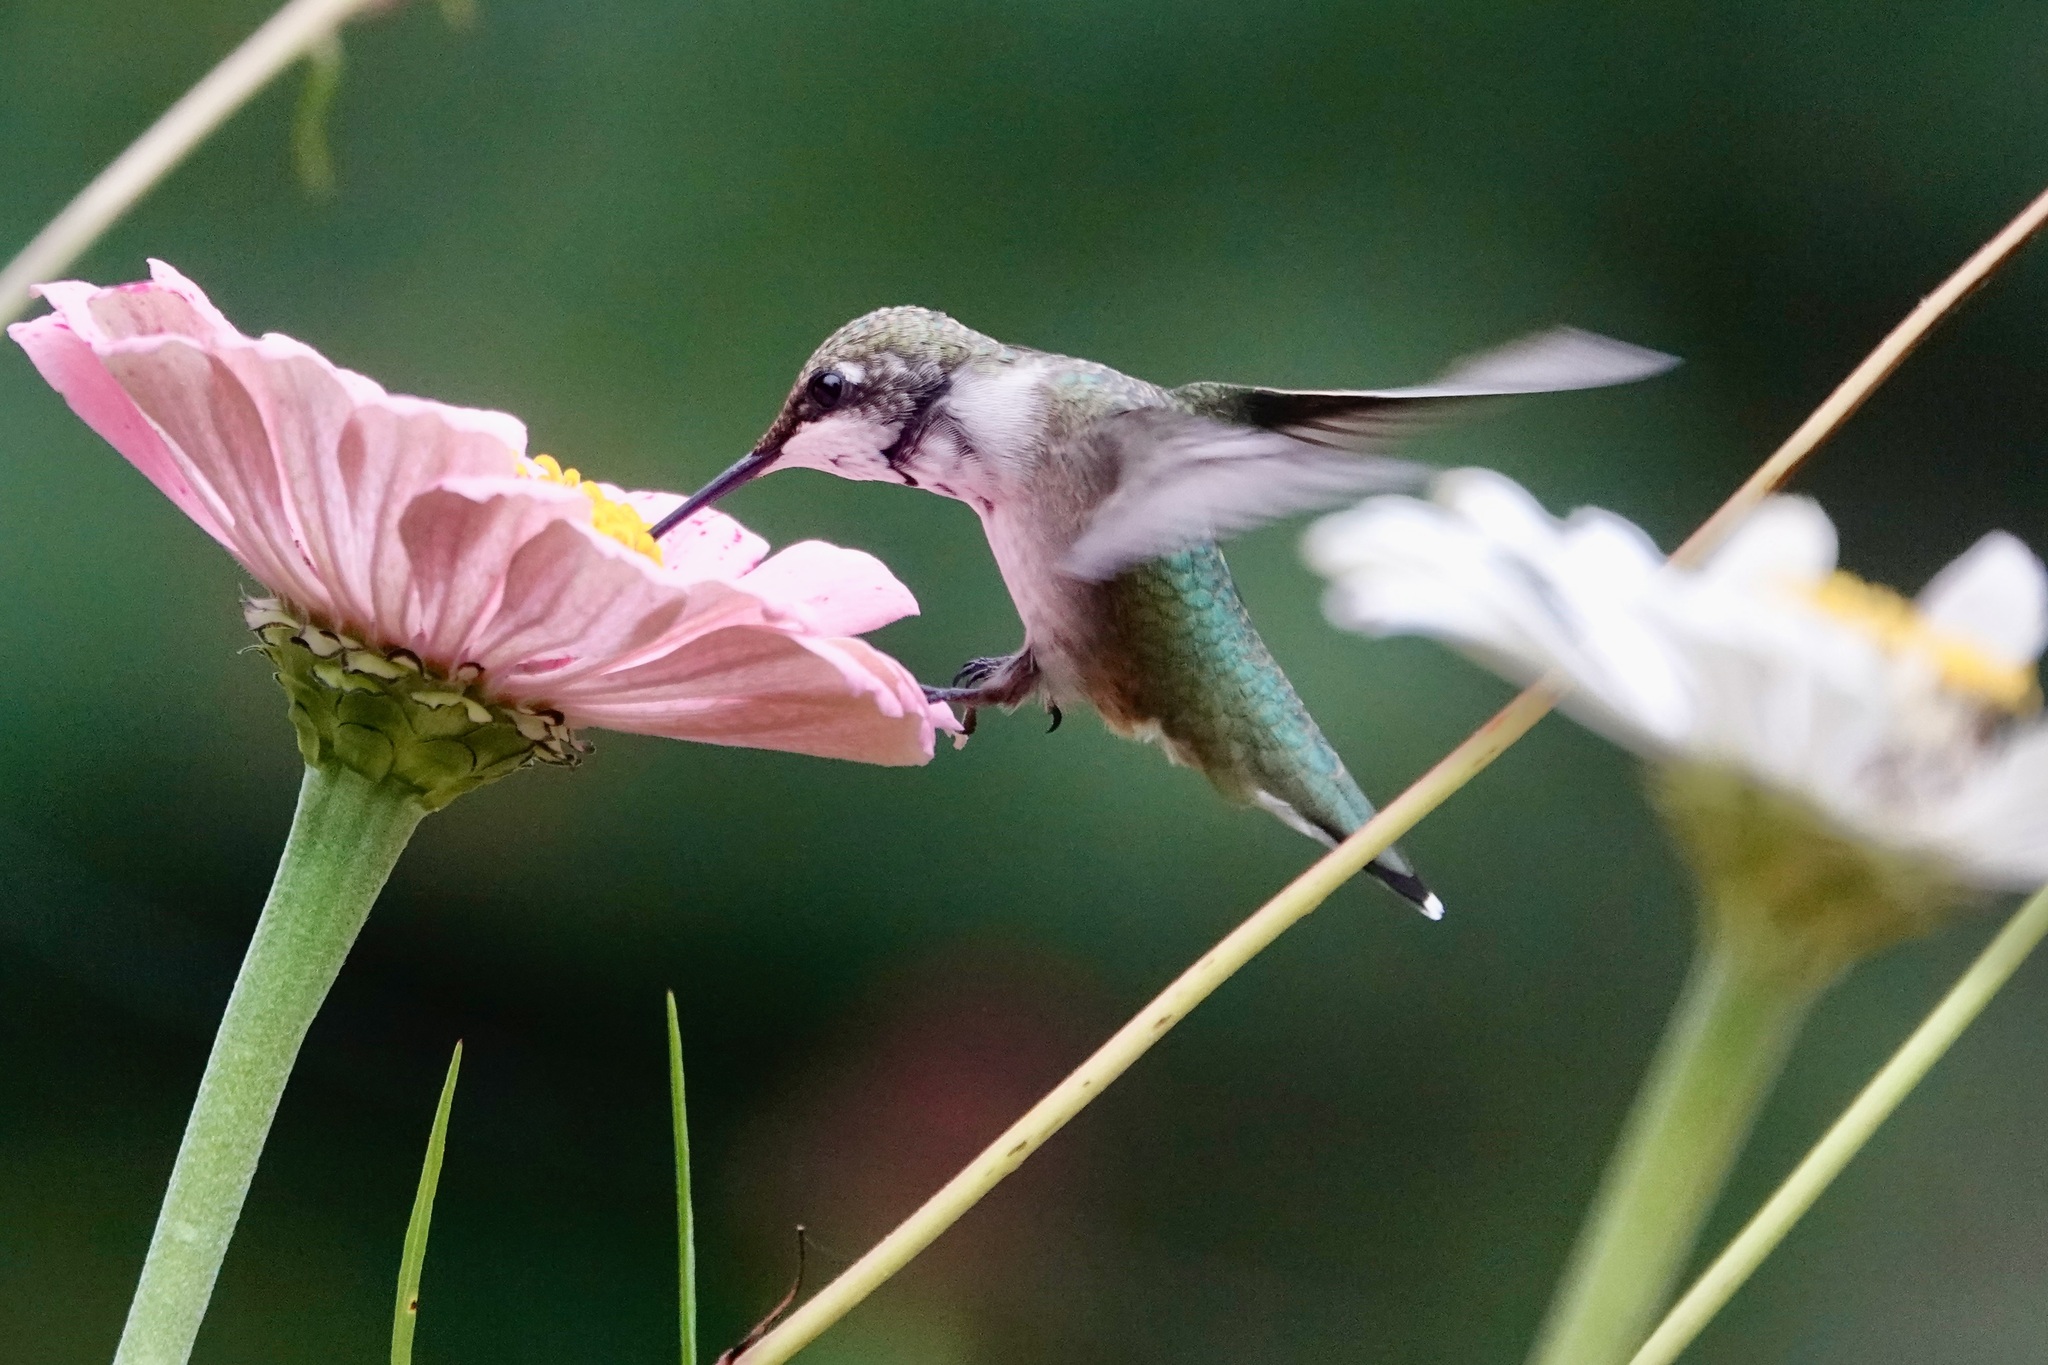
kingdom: Animalia
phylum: Chordata
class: Aves
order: Apodiformes
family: Trochilidae
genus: Archilochus
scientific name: Archilochus colubris
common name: Ruby-throated hummingbird
